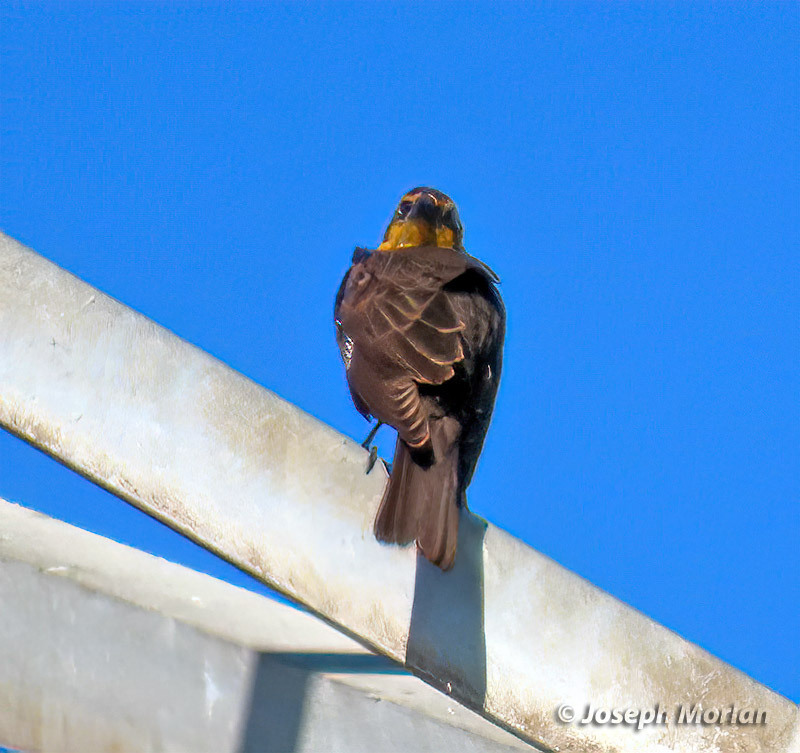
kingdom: Animalia
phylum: Chordata
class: Aves
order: Passeriformes
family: Icteridae
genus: Xanthocephalus
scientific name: Xanthocephalus xanthocephalus
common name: Yellow-headed blackbird
